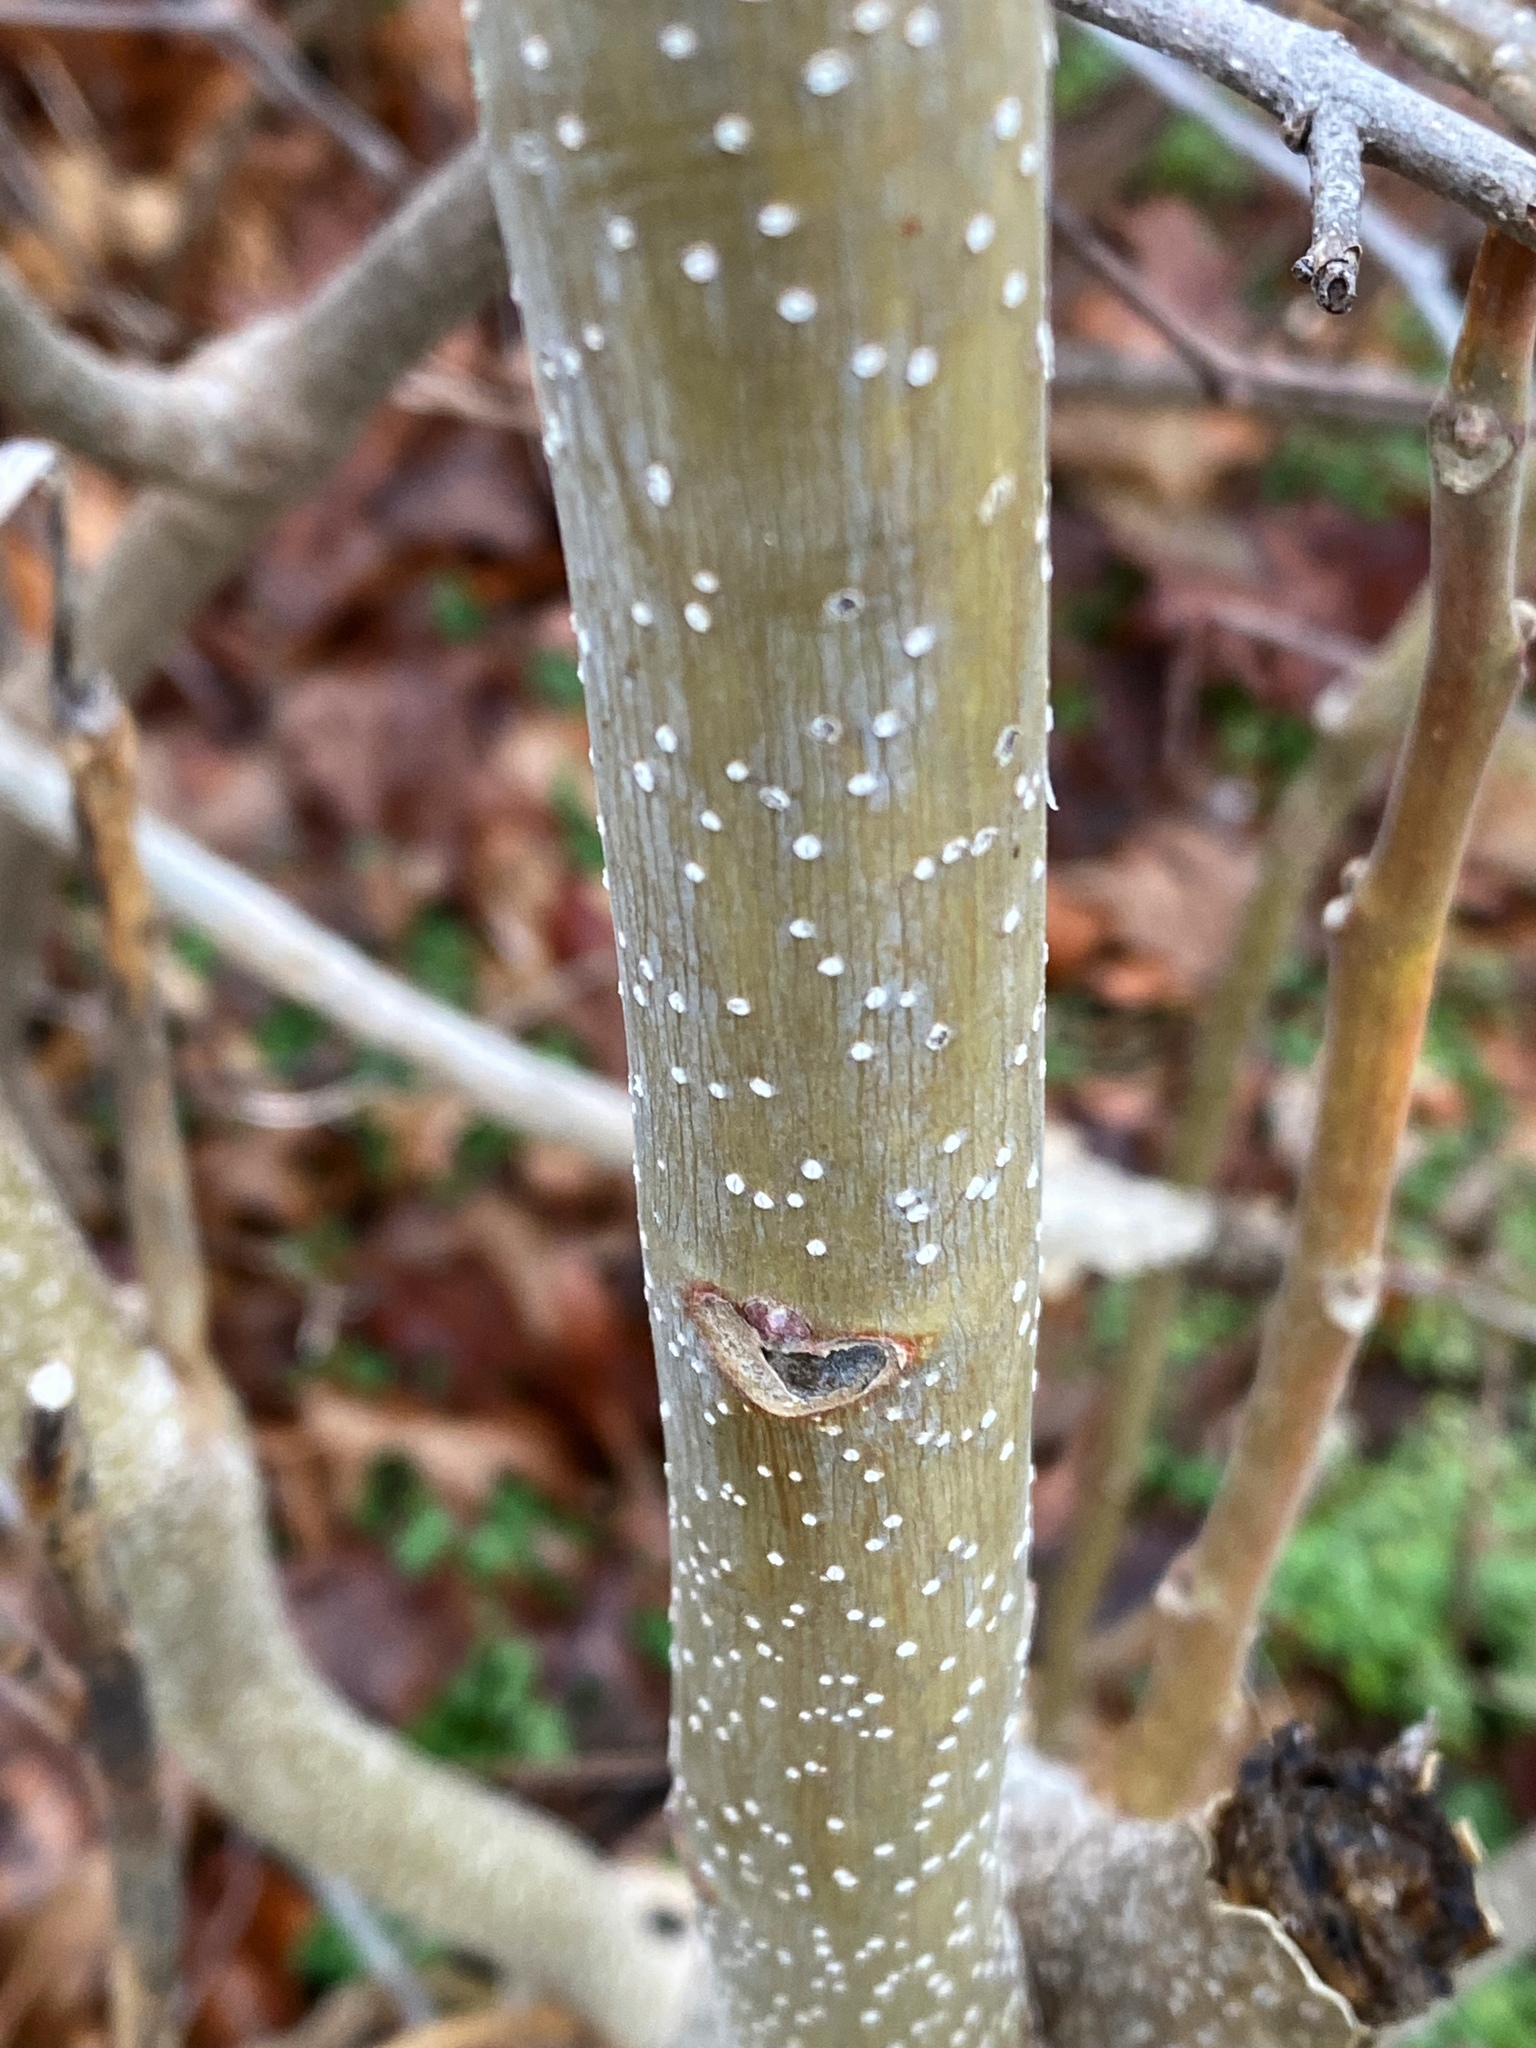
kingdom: Plantae
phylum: Tracheophyta
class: Magnoliopsida
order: Sapindales
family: Simaroubaceae
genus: Ailanthus
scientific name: Ailanthus altissima
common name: Tree-of-heaven
